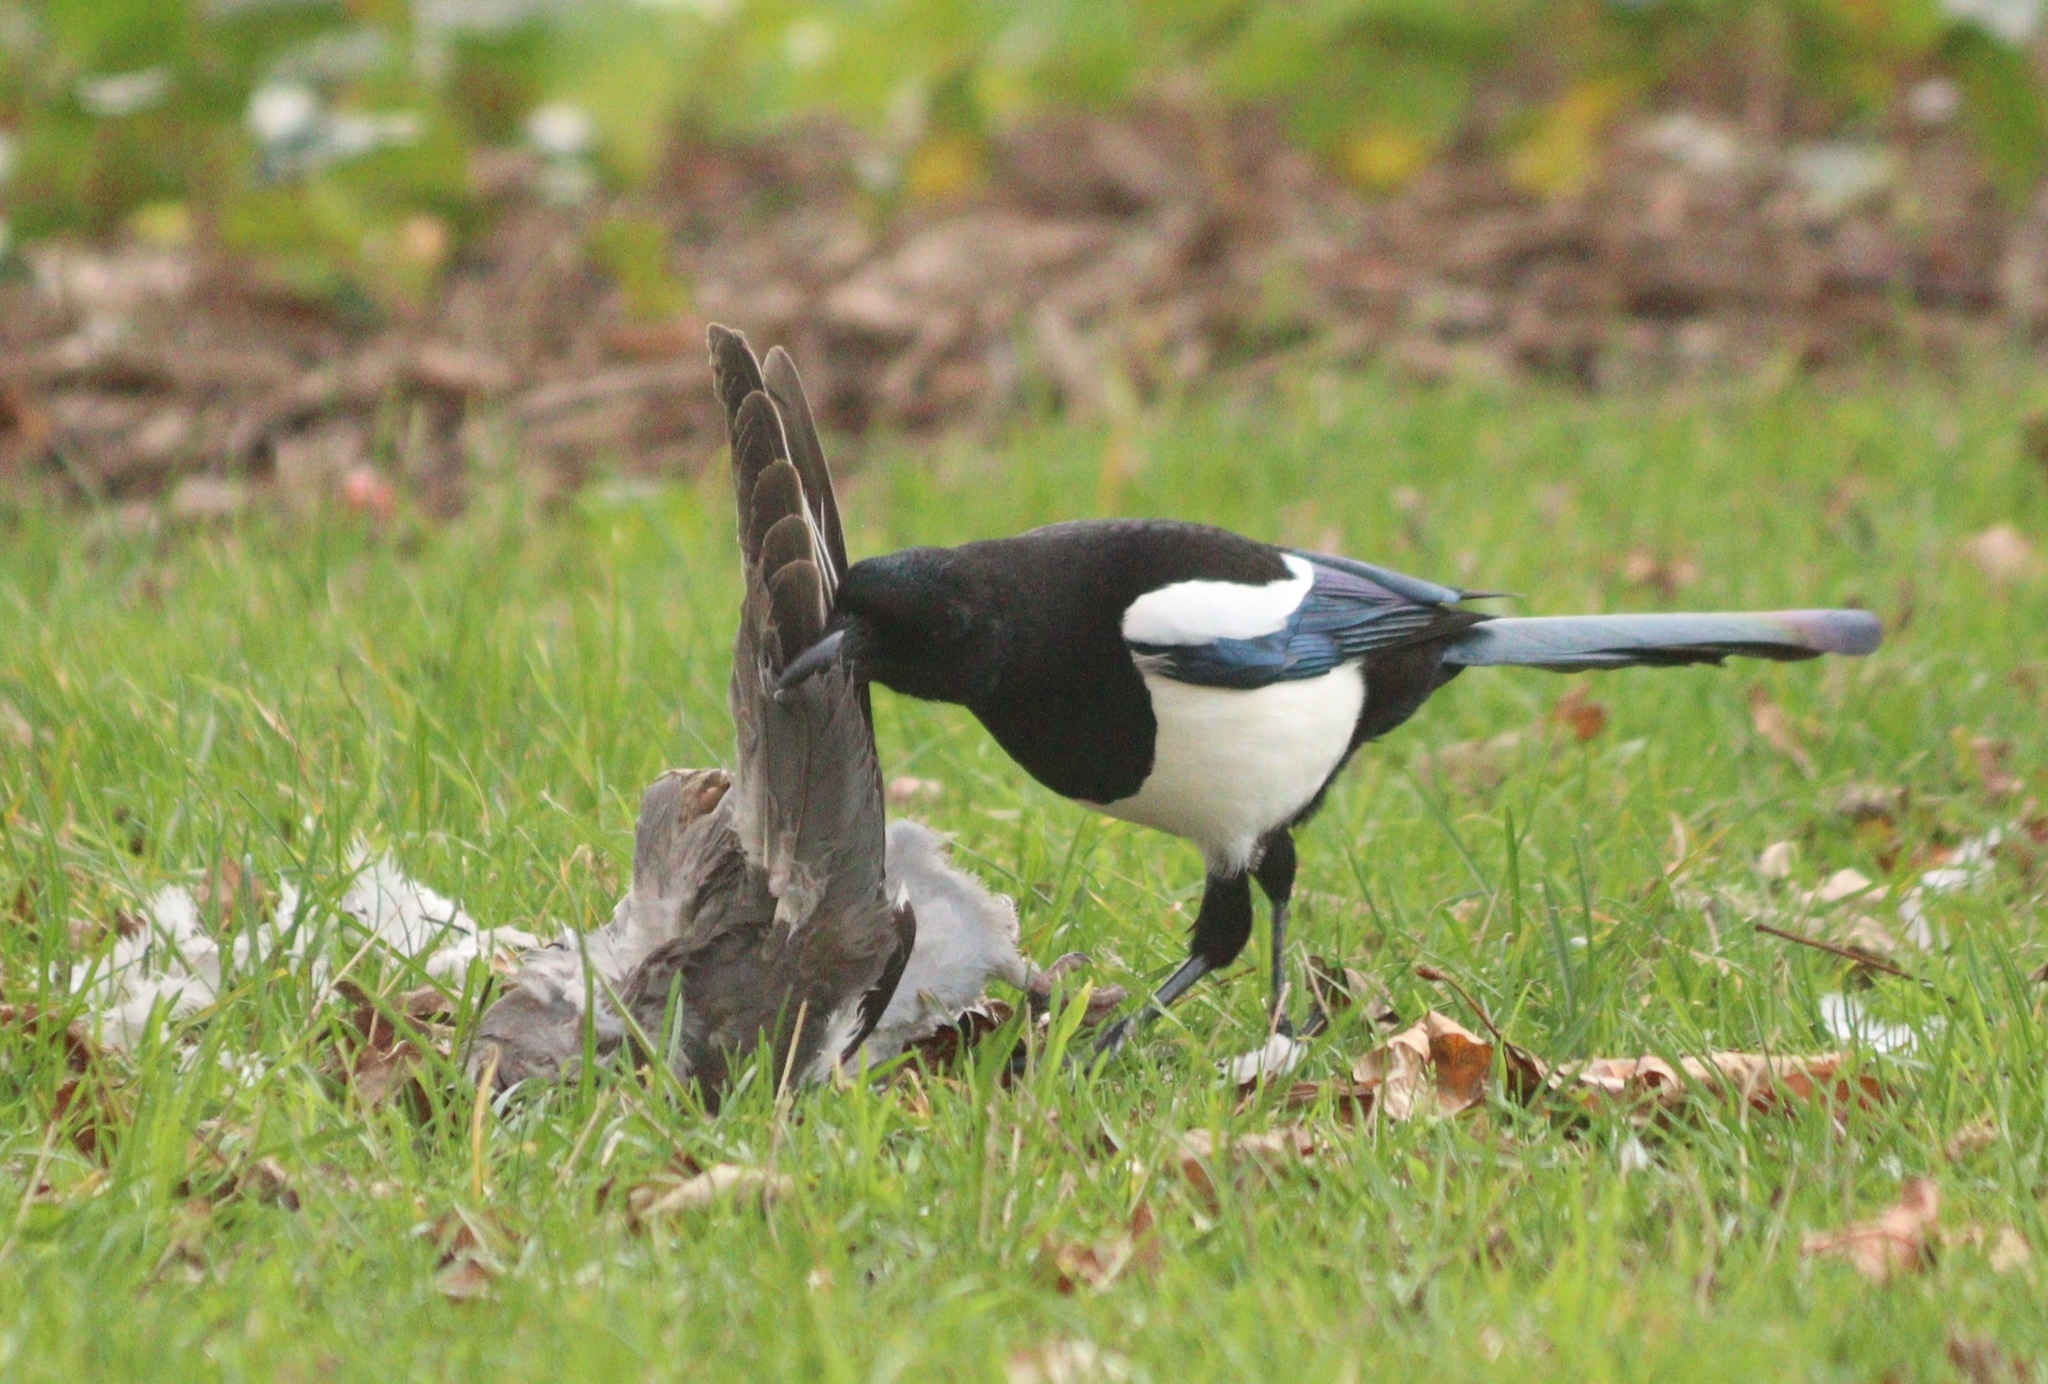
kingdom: Animalia
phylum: Chordata
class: Aves
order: Passeriformes
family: Corvidae
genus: Pica
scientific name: Pica pica
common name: Eurasian magpie
